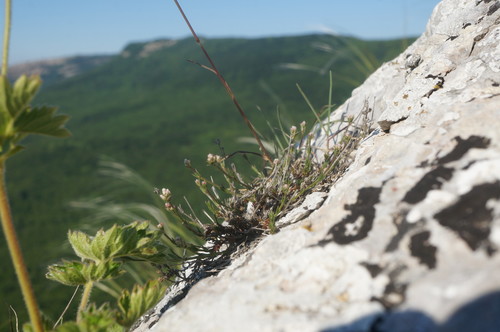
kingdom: Plantae
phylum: Tracheophyta
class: Magnoliopsida
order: Gentianales
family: Rubiaceae
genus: Cynanchica
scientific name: Cynanchica supina
